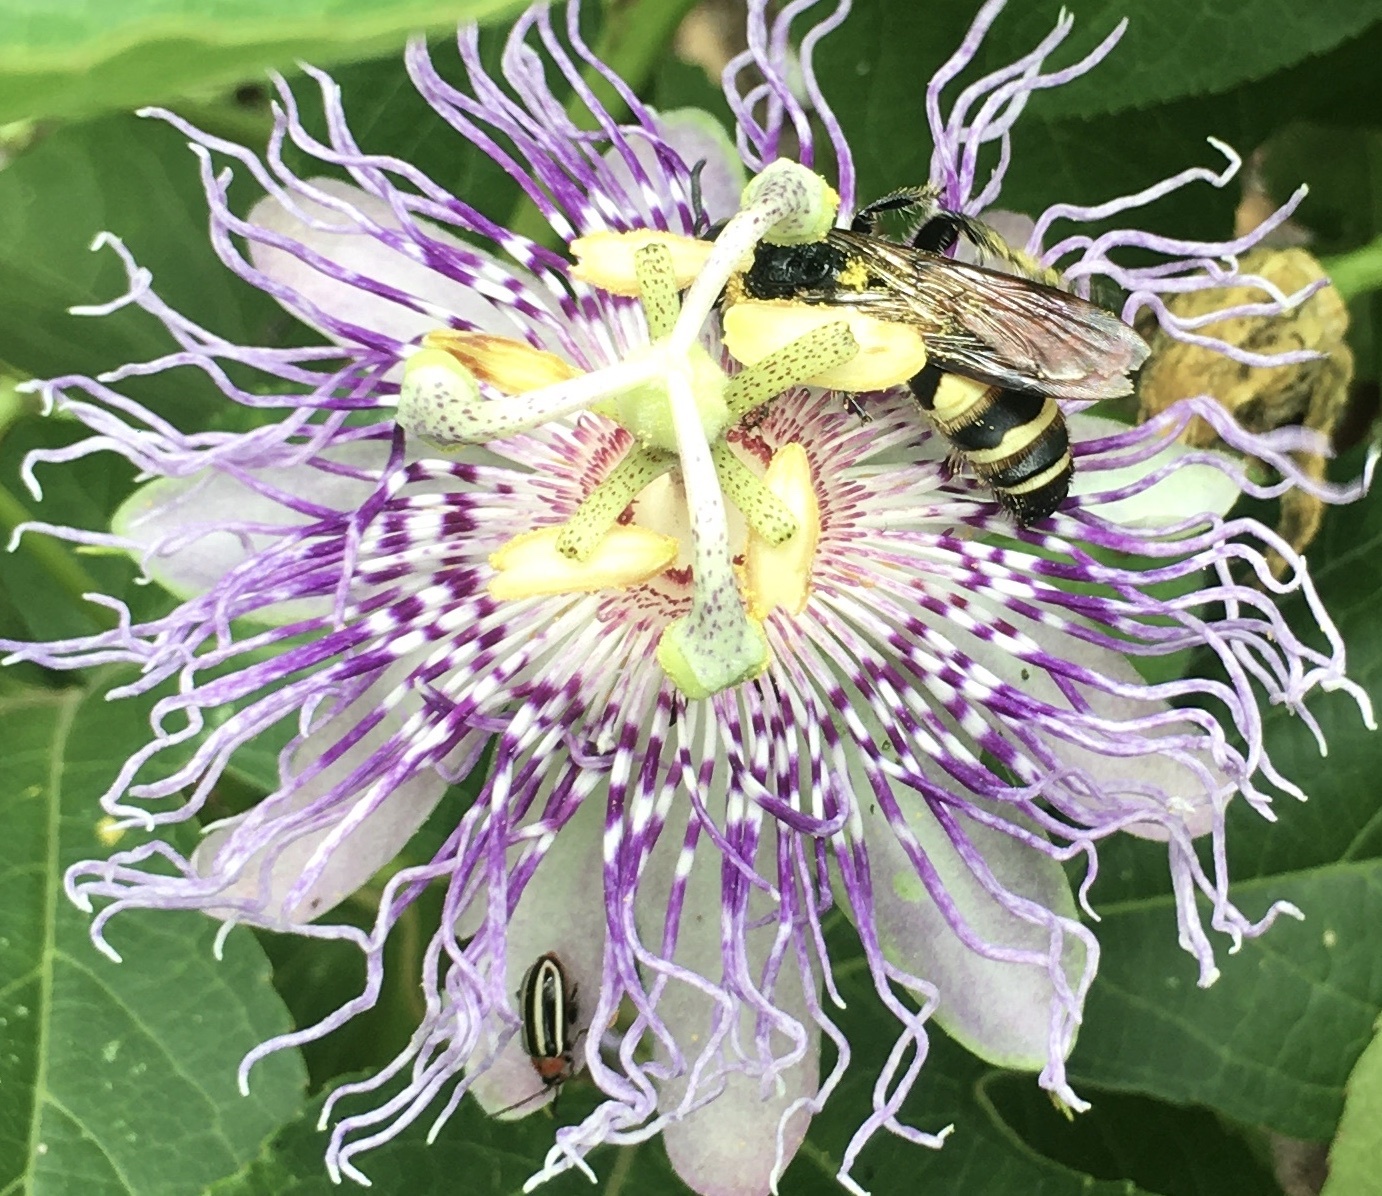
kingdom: Animalia
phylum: Arthropoda
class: Insecta
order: Hymenoptera
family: Scoliidae
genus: Dielis
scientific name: Dielis
